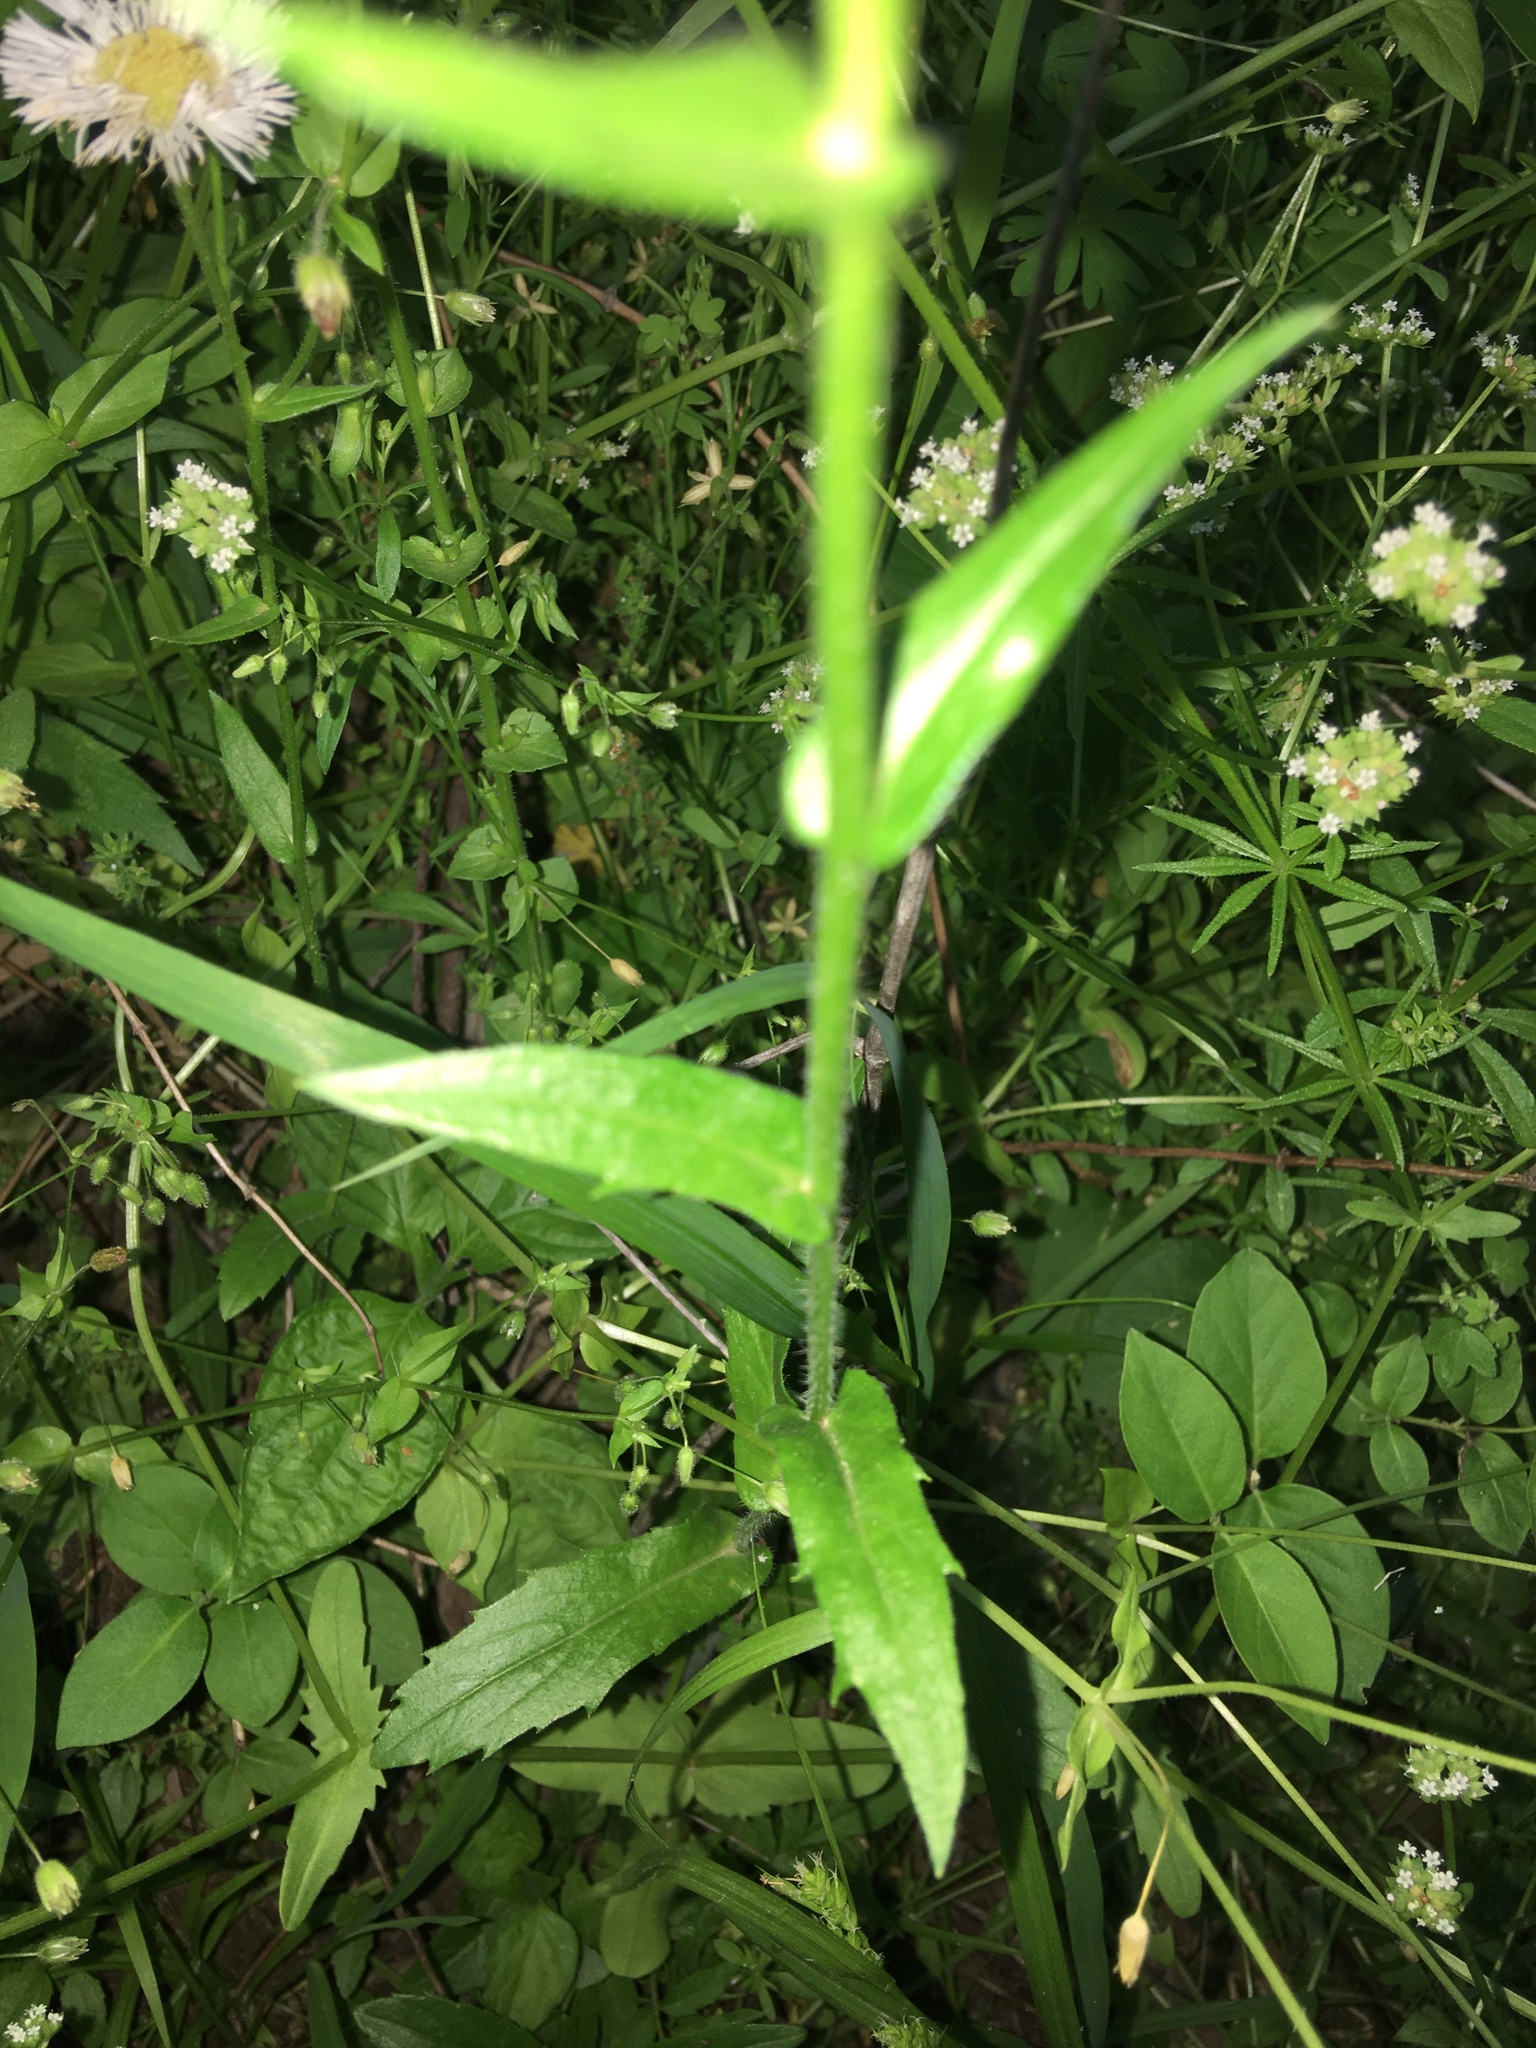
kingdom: Plantae
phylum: Tracheophyta
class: Magnoliopsida
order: Asterales
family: Asteraceae
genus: Erigeron
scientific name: Erigeron philadelphicus
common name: Robin's-plantain
